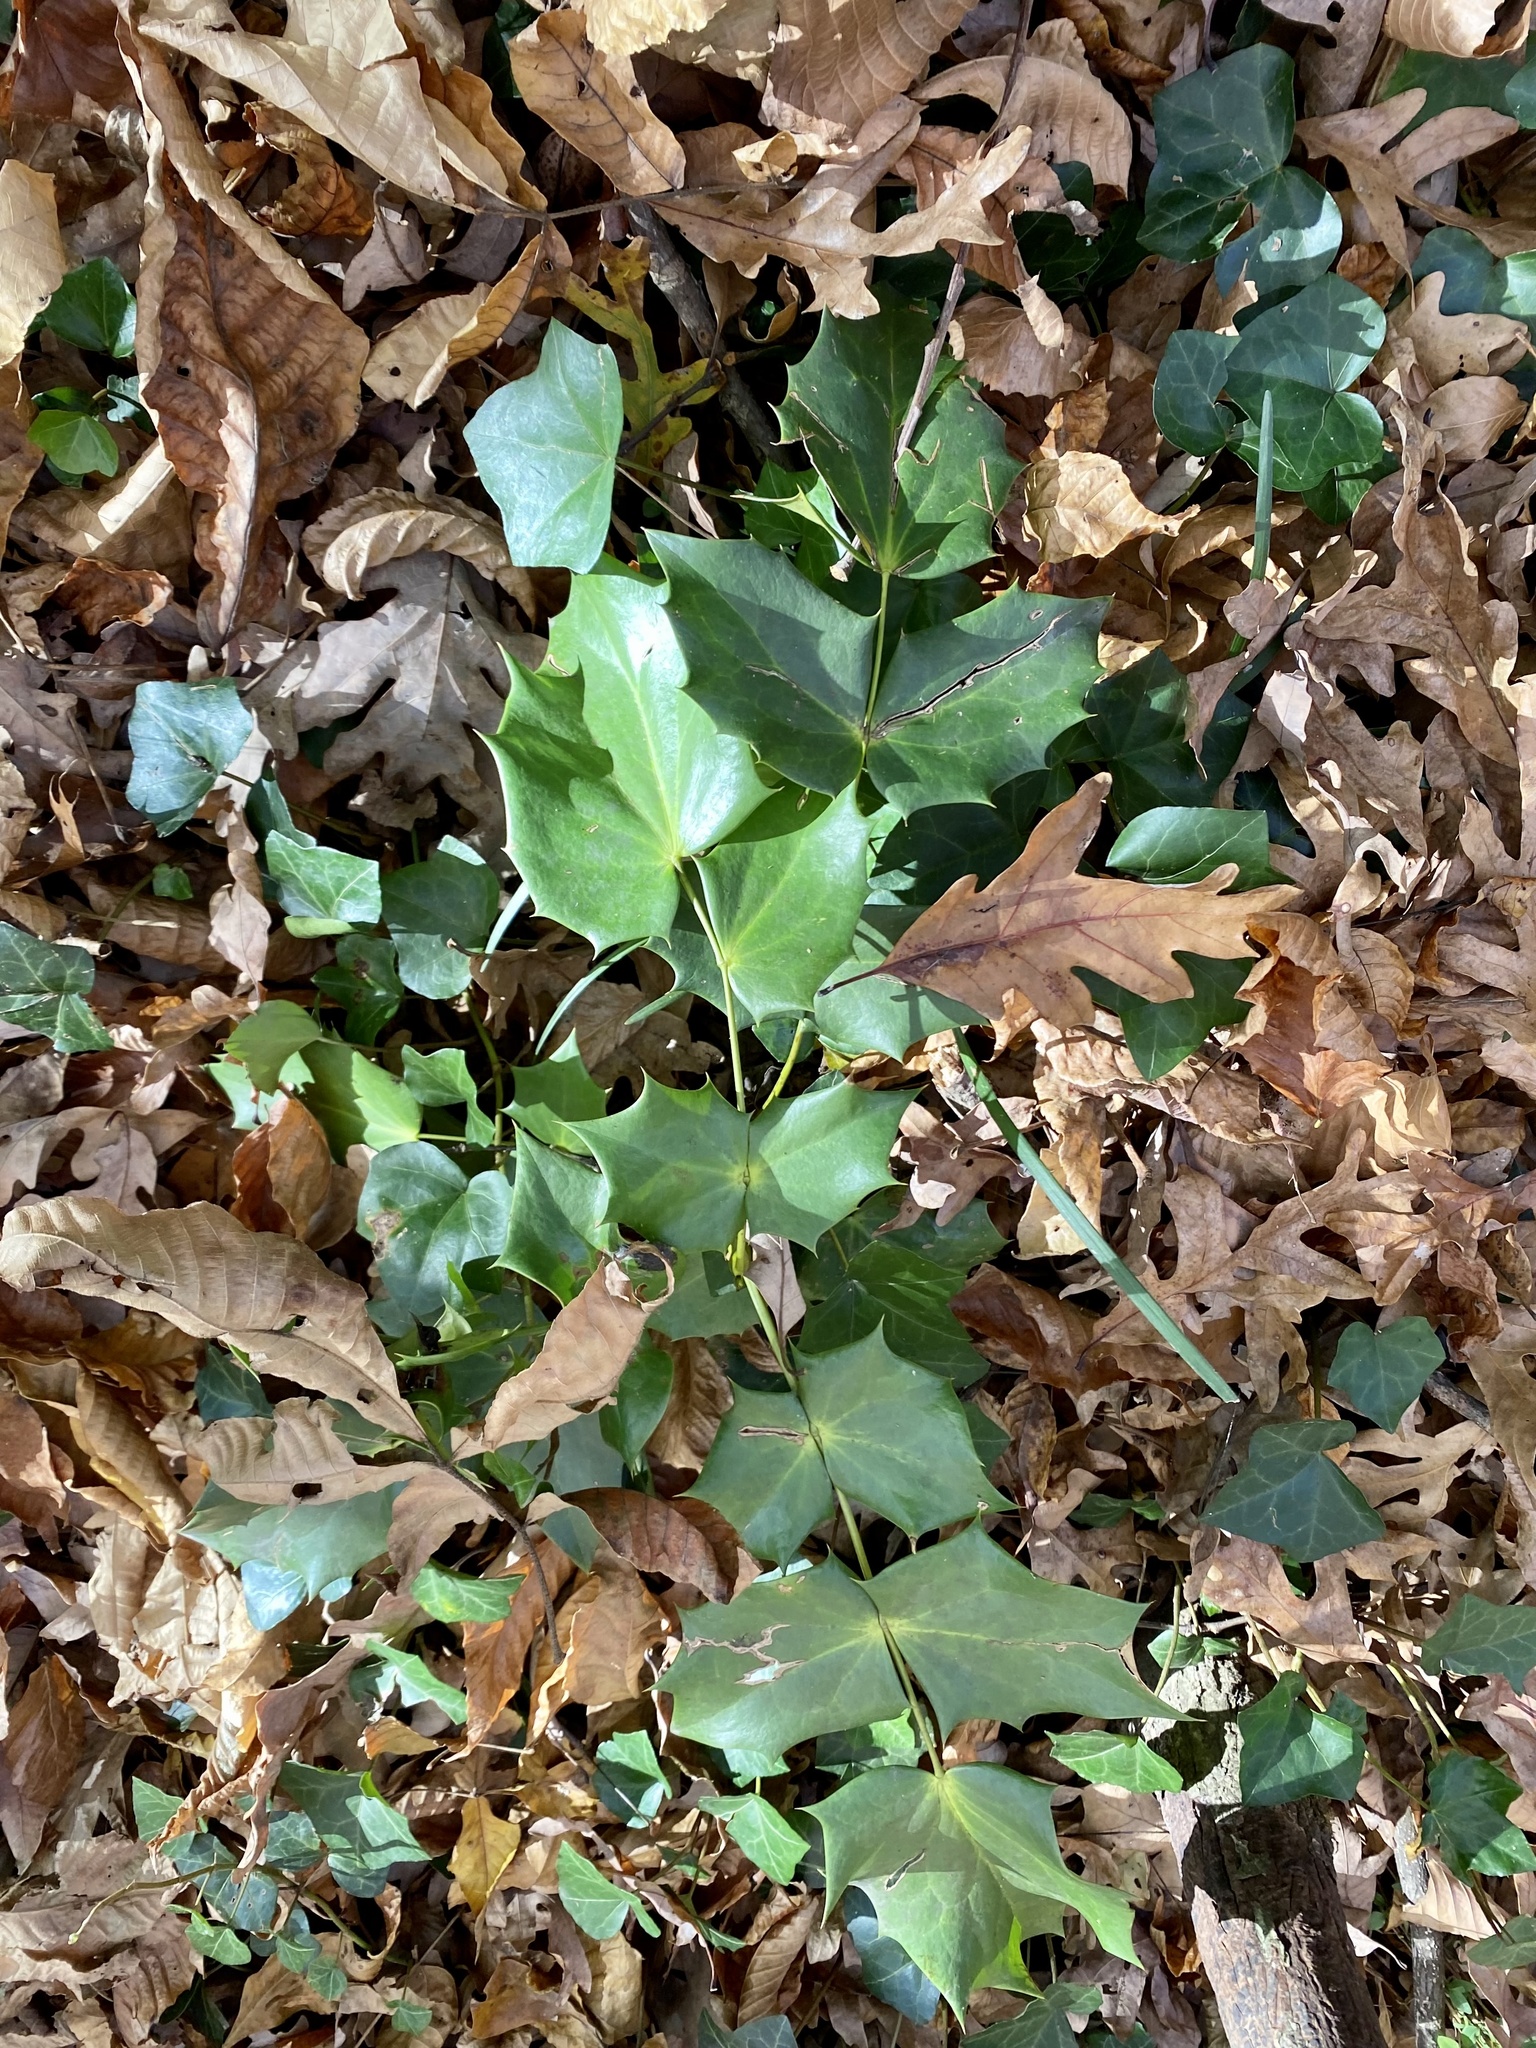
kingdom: Plantae
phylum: Tracheophyta
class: Magnoliopsida
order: Ranunculales
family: Berberidaceae
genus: Mahonia
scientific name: Mahonia bealei
